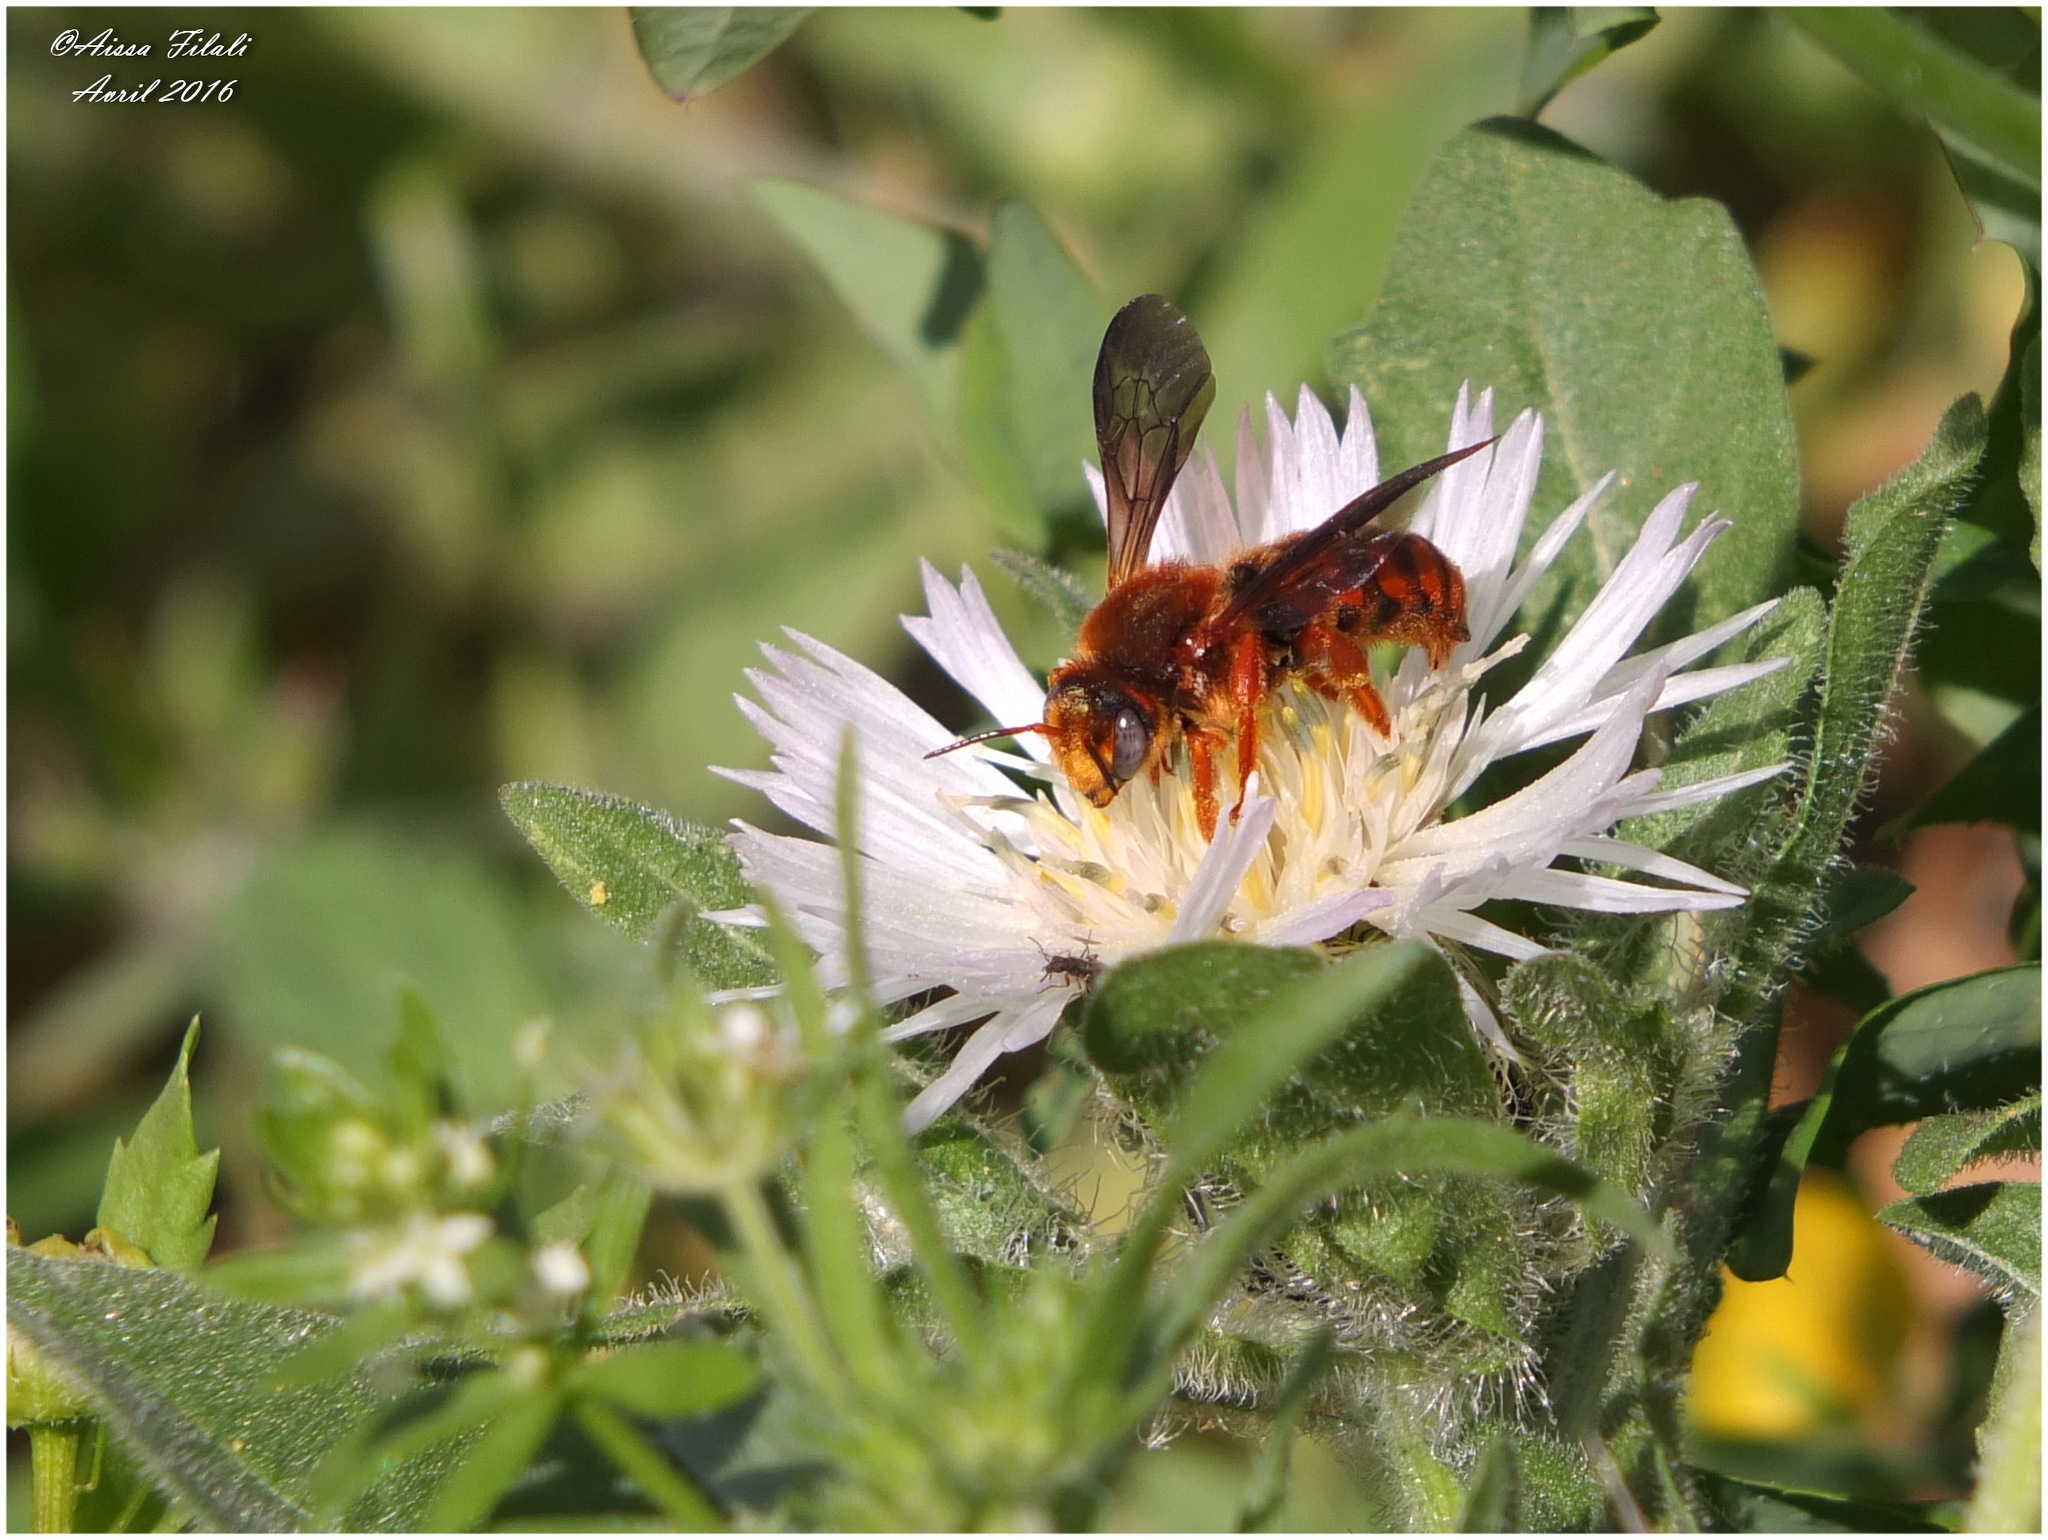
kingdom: Animalia
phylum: Arthropoda
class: Insecta
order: Hymenoptera
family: Megachilidae
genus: Rhodanthidium
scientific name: Rhodanthidium sticticum
